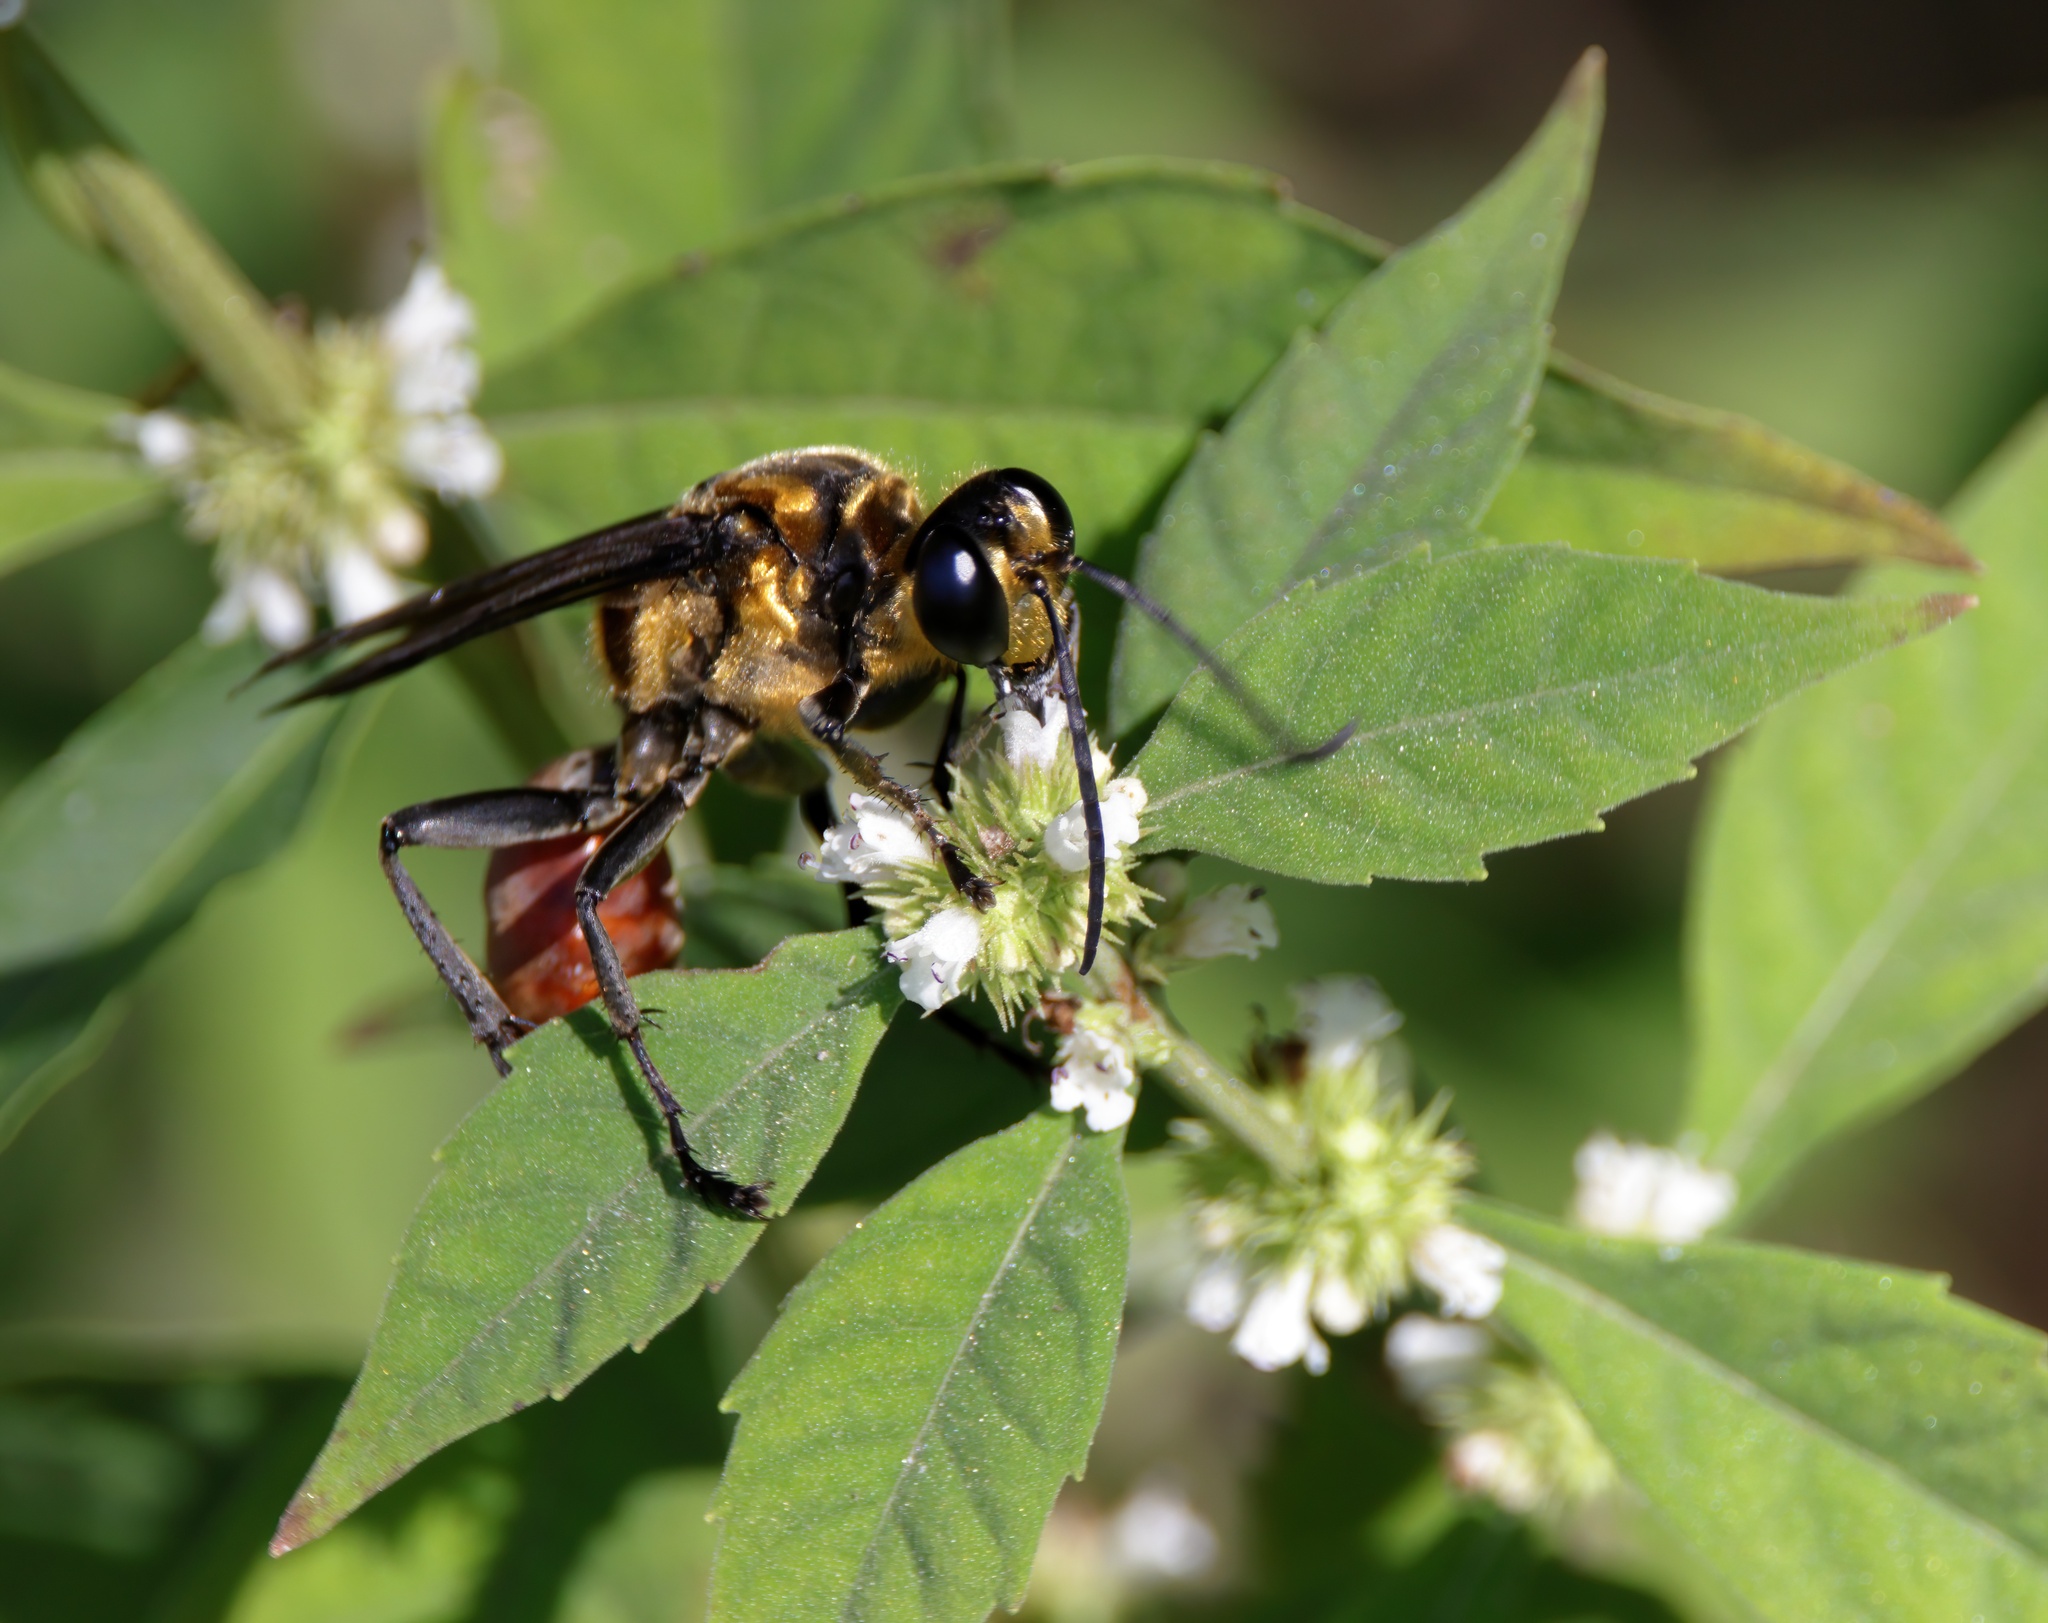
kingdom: Animalia
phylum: Arthropoda
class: Insecta
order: Hymenoptera
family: Sphecidae
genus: Sphex
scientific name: Sphex habenus
